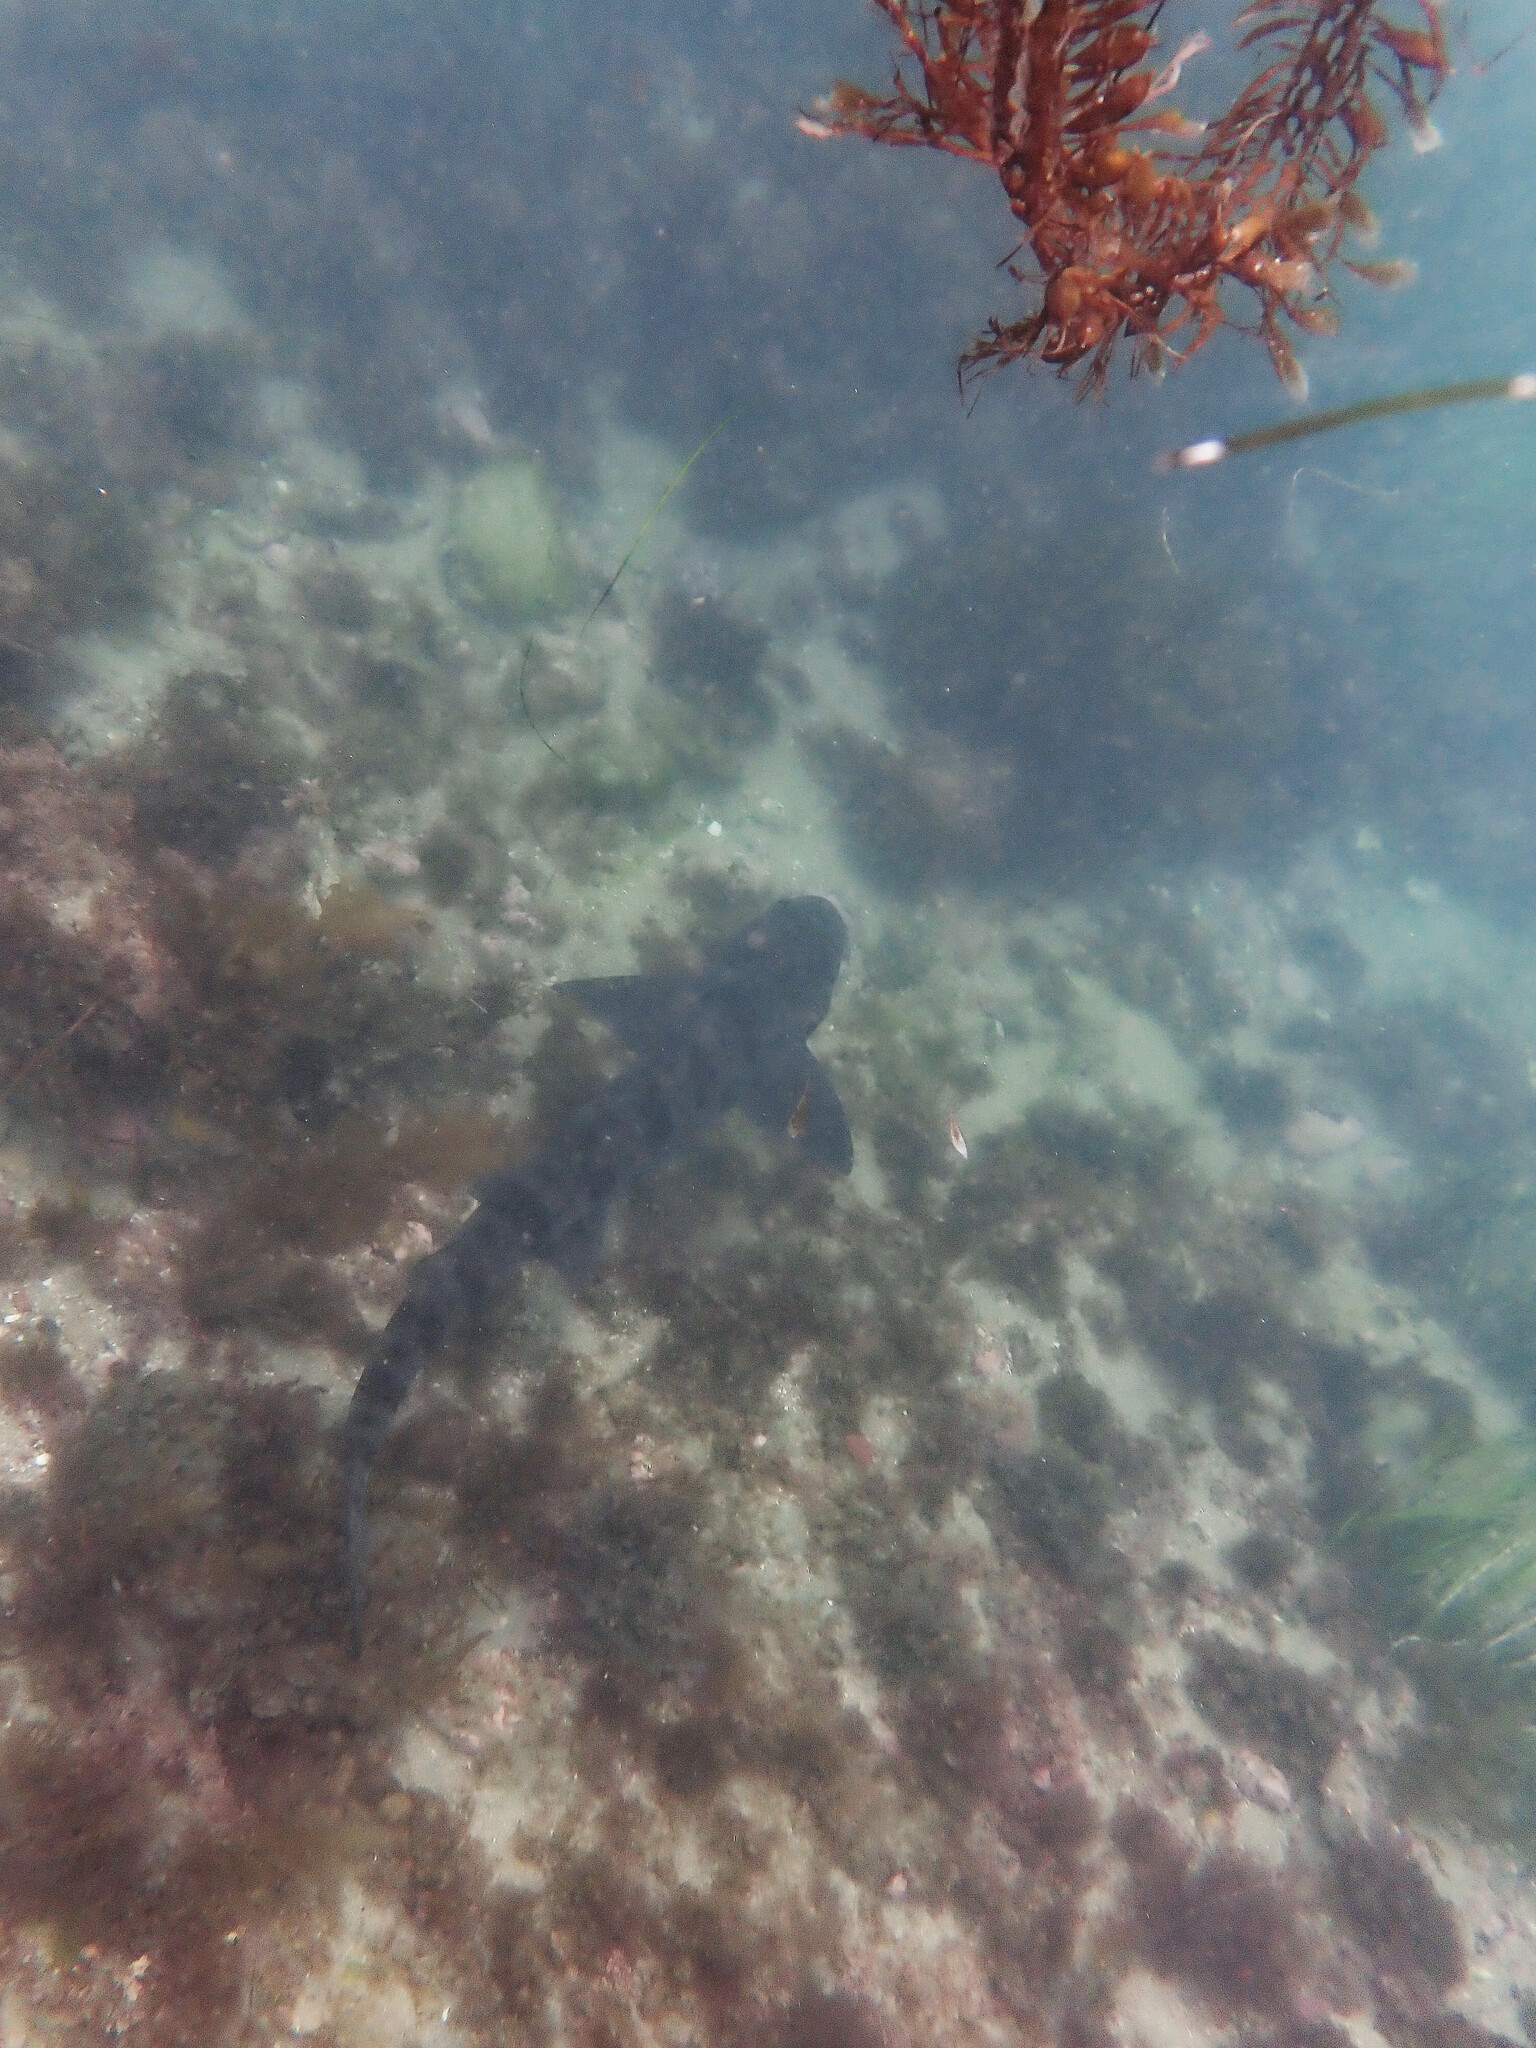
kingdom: Animalia
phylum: Chordata
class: Elasmobranchii
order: Carcharhiniformes
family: Triakidae
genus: Triakis
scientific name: Triakis semifasciata
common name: Leopard shark
